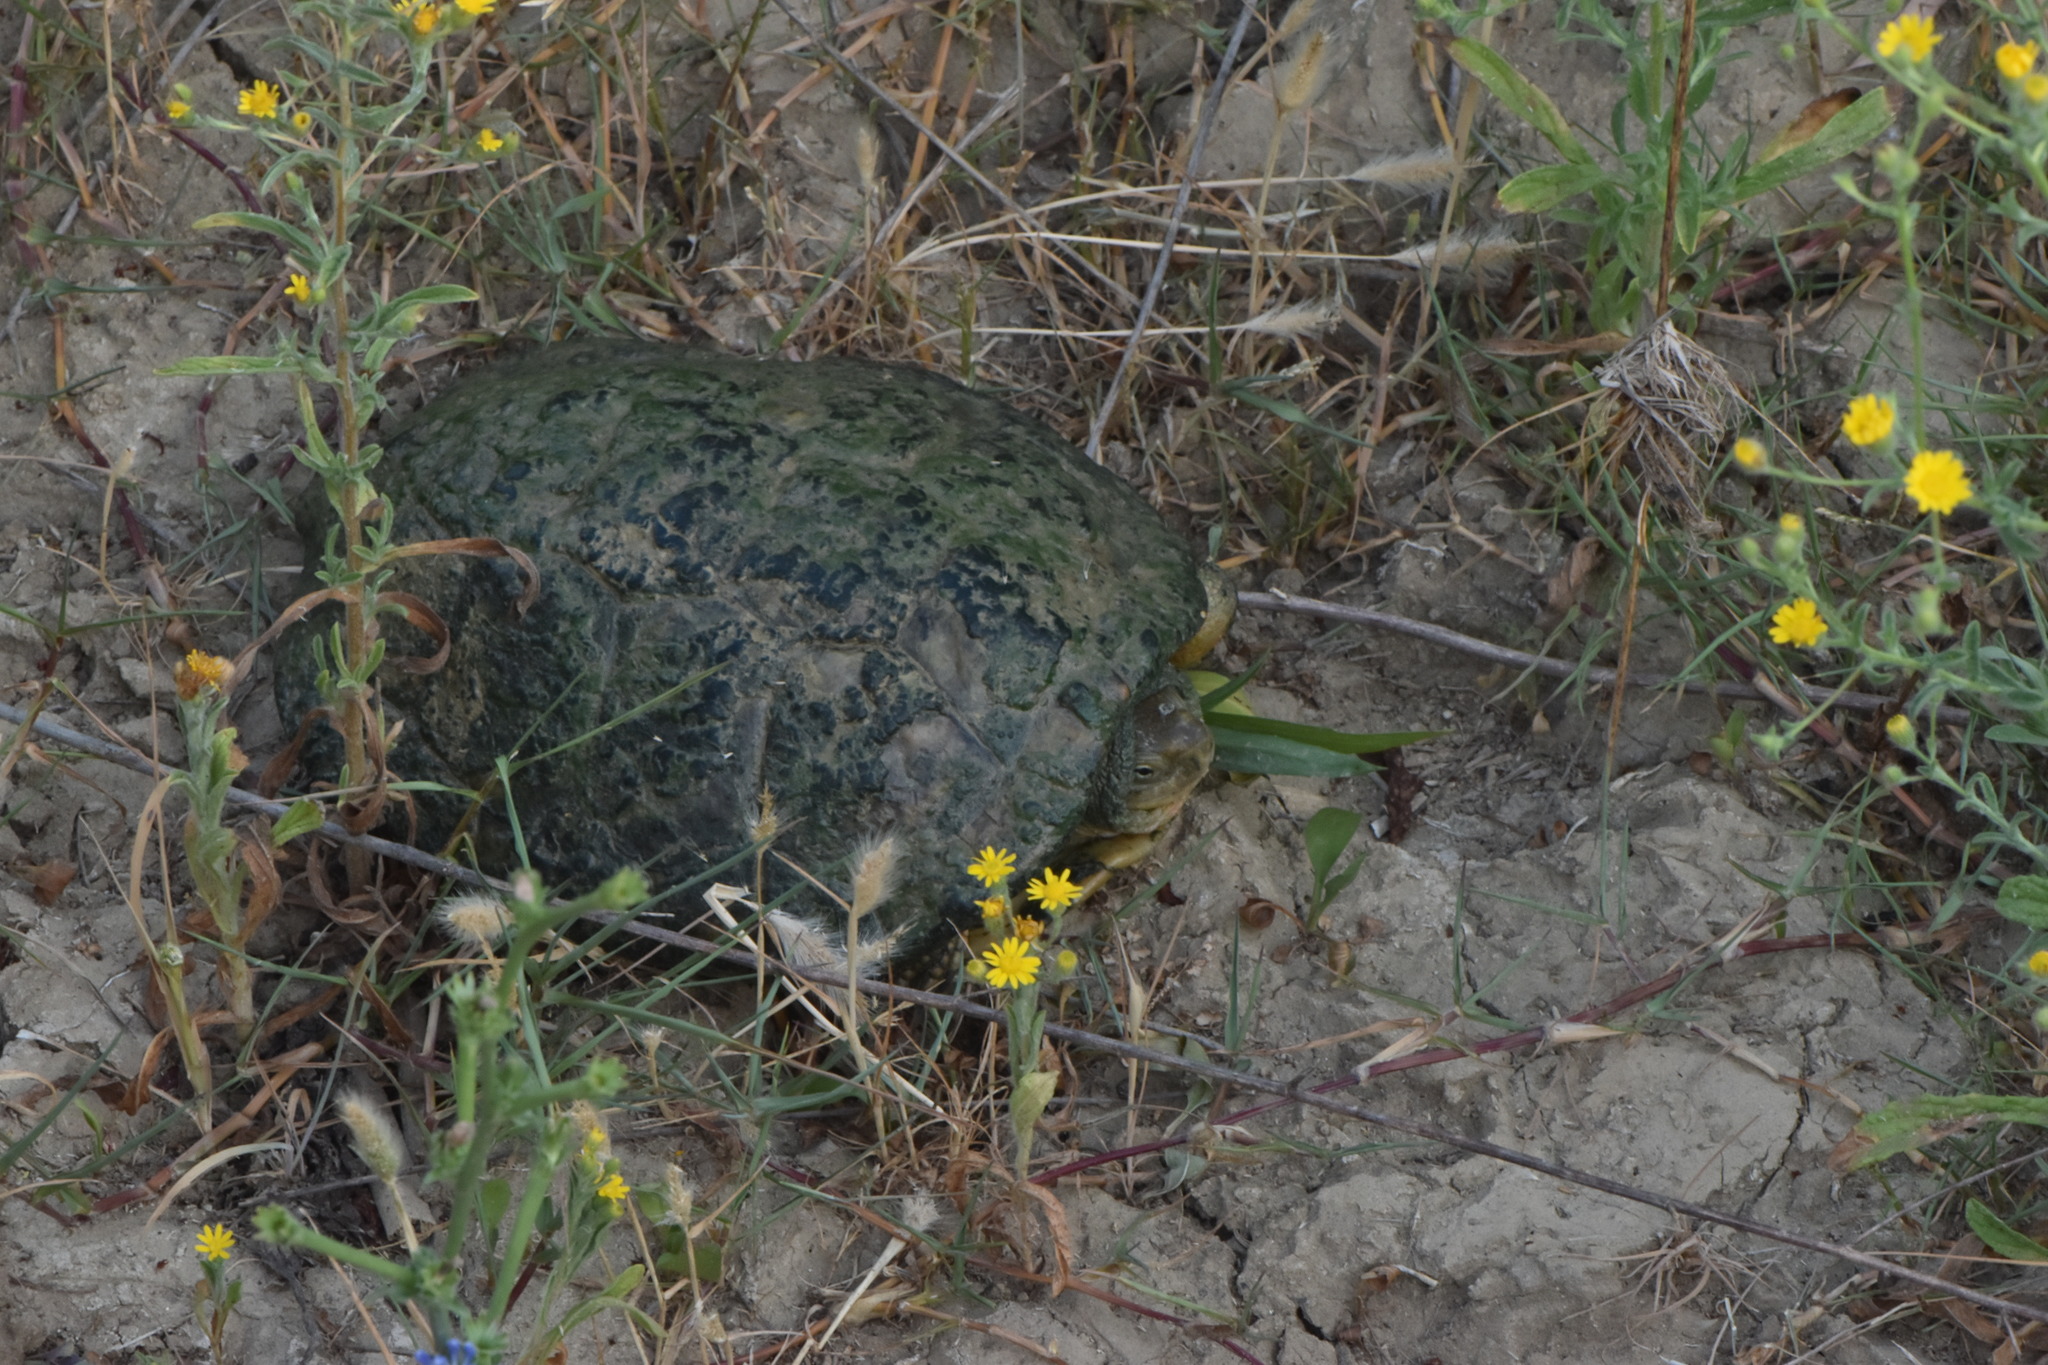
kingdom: Animalia
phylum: Chordata
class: Testudines
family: Geoemydidae
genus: Mauremys
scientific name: Mauremys leprosa
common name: Mediterranean pond turtle
